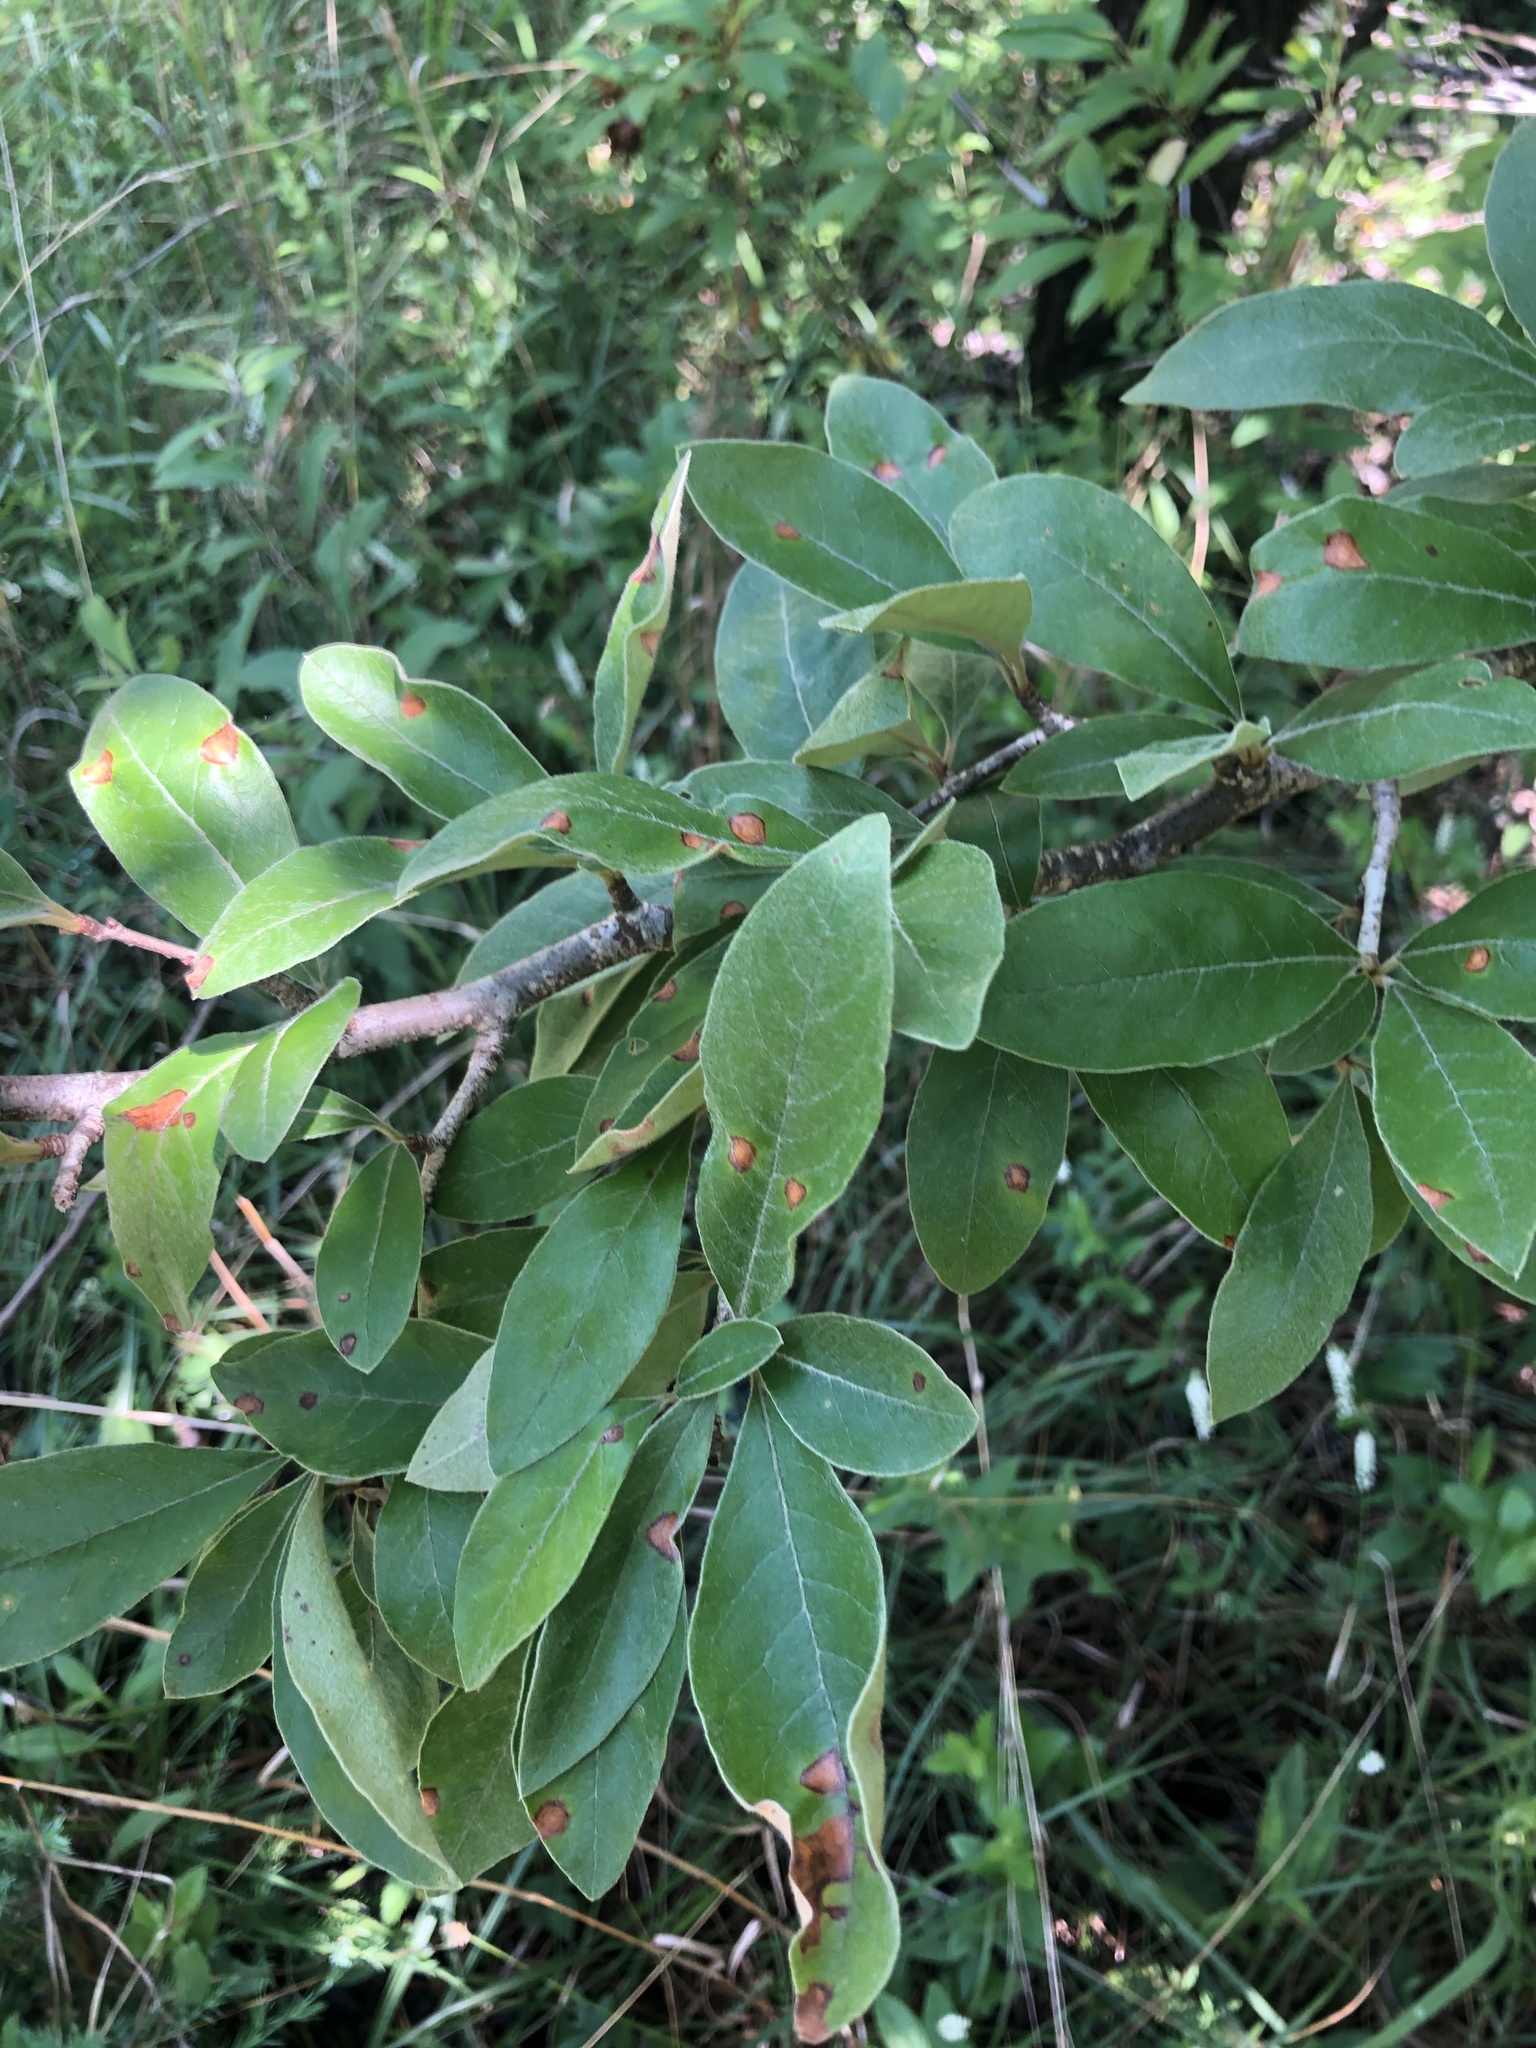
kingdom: Plantae
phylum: Tracheophyta
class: Magnoliopsida
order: Ericales
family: Sapotaceae
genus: Sideroxylon
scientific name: Sideroxylon thornei
